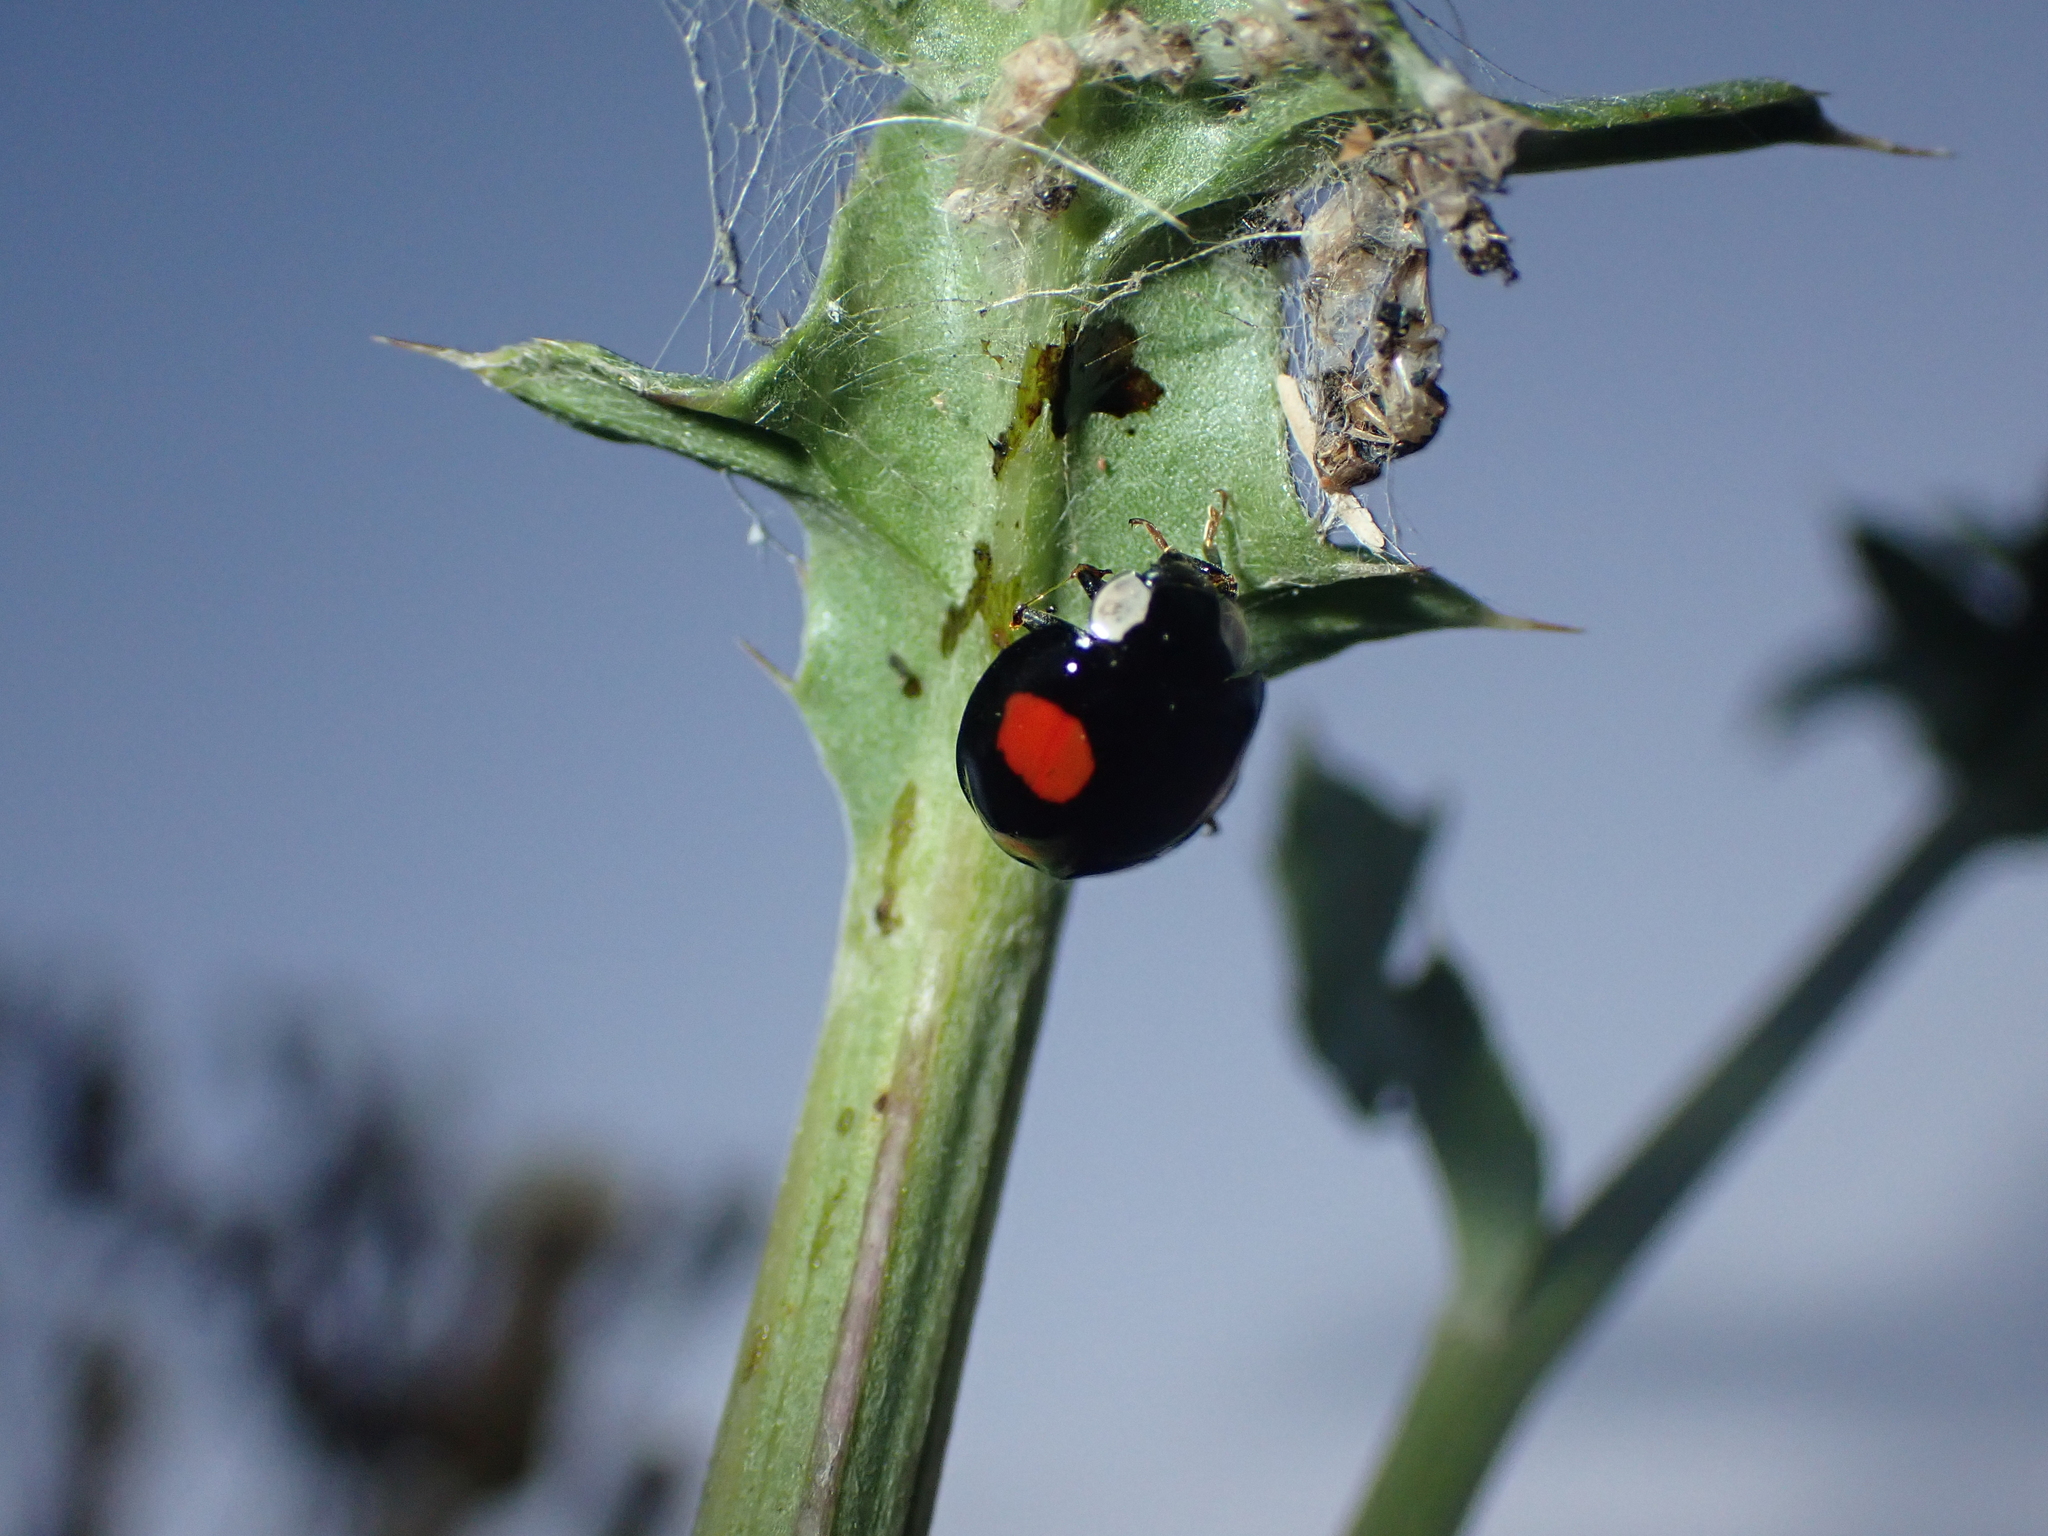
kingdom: Animalia
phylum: Arthropoda
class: Insecta
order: Coleoptera
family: Coccinellidae
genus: Harmonia
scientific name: Harmonia axyridis
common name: Harlequin ladybird
